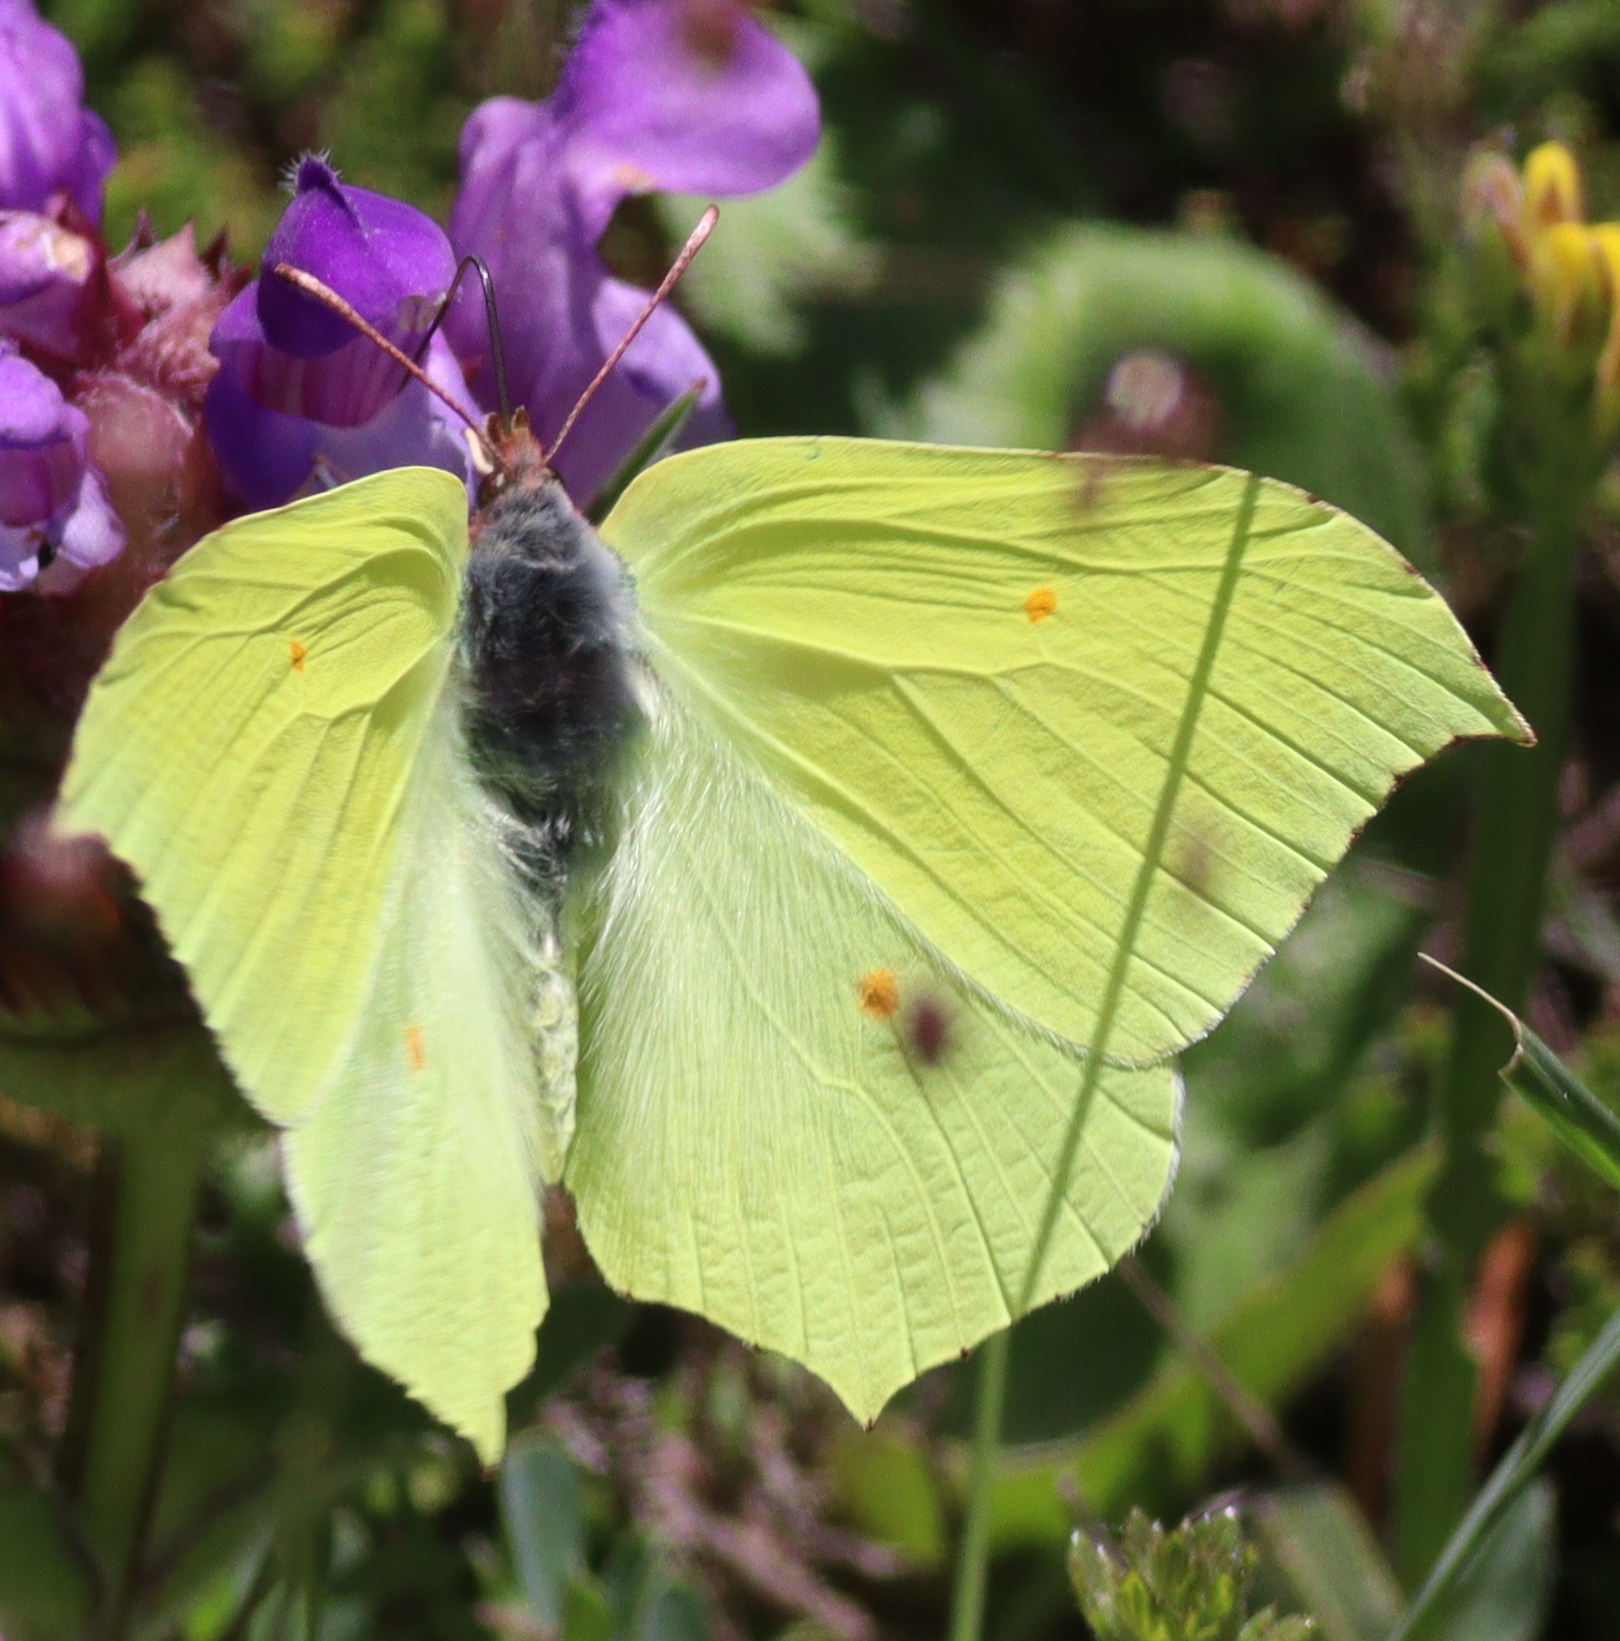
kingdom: Animalia
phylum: Arthropoda
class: Insecta
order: Lepidoptera
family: Pieridae
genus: Gonepteryx
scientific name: Gonepteryx rhamni
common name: Brimstone
